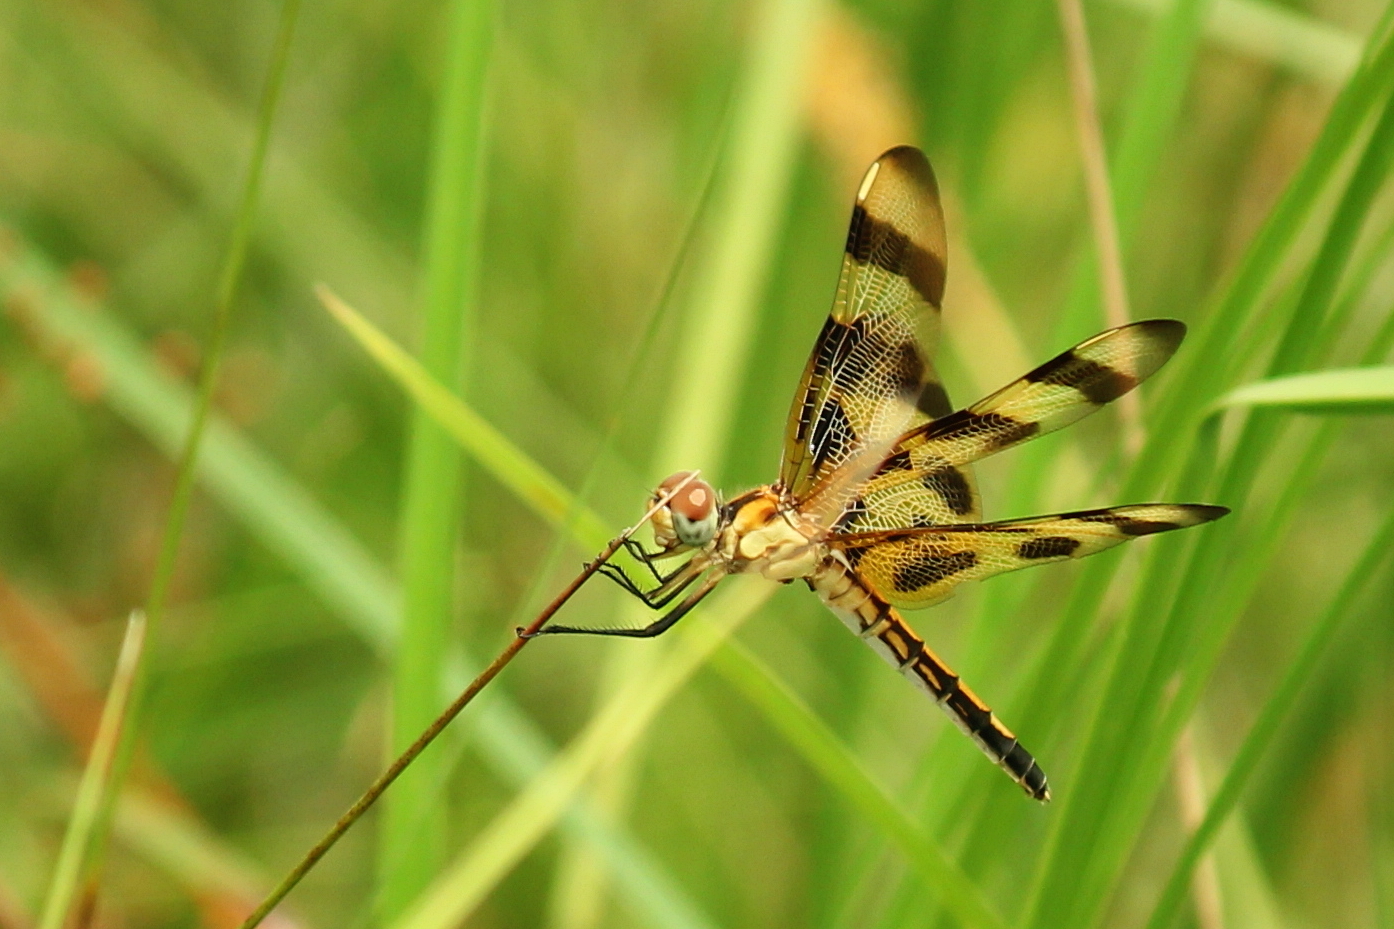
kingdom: Animalia
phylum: Arthropoda
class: Insecta
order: Odonata
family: Libellulidae
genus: Celithemis
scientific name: Celithemis eponina
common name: Halloween pennant
